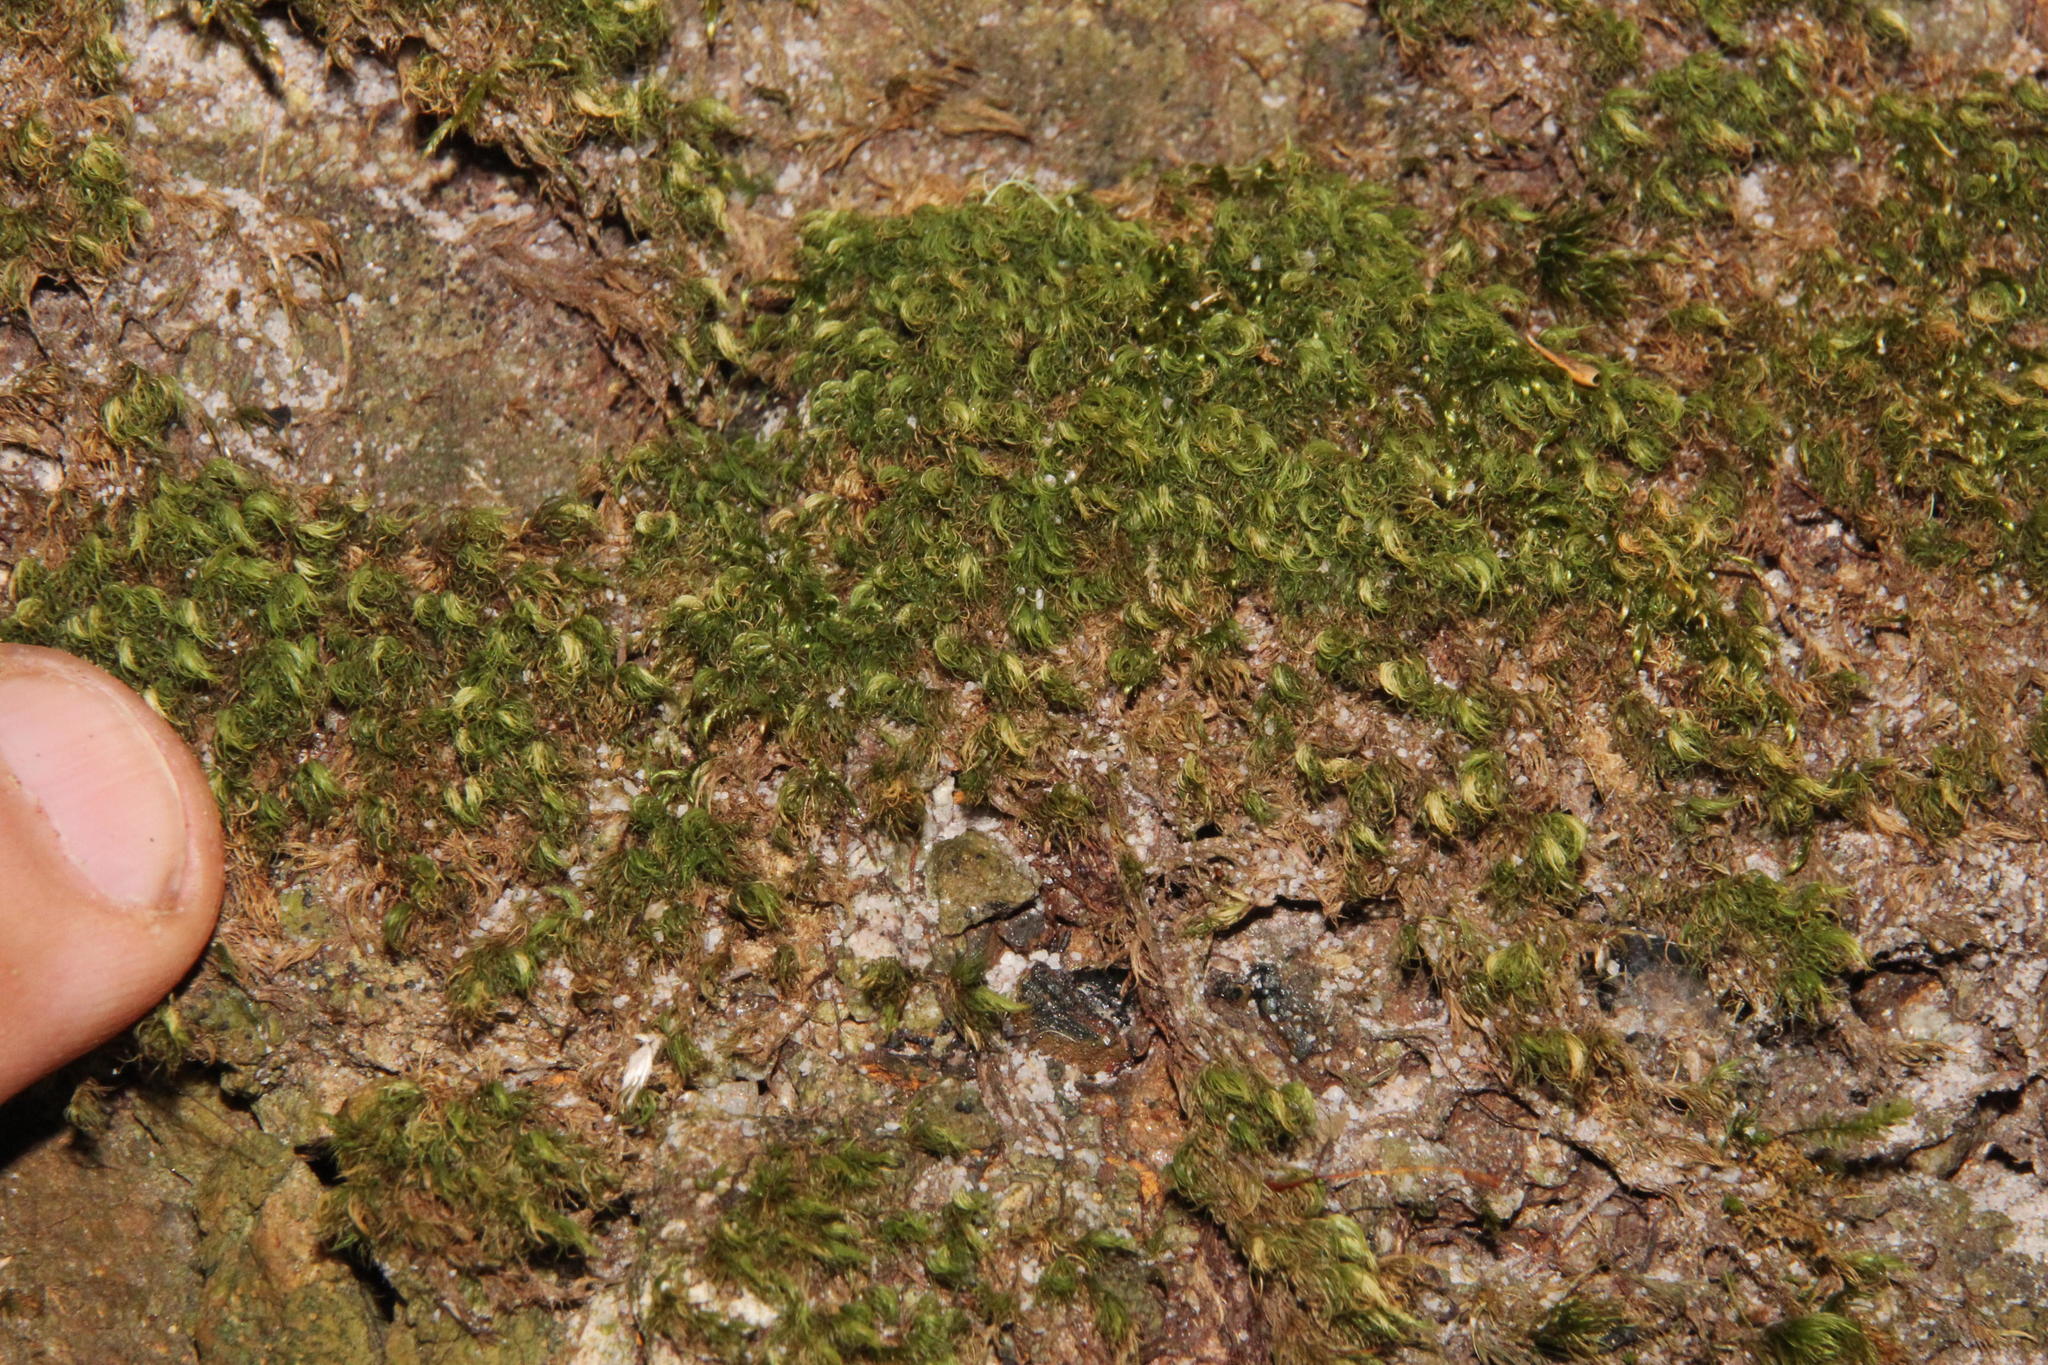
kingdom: Plantae
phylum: Bryophyta
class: Bryopsida
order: Dicranales
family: Dicranaceae
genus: Leucoloma
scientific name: Leucoloma sprengelianum
